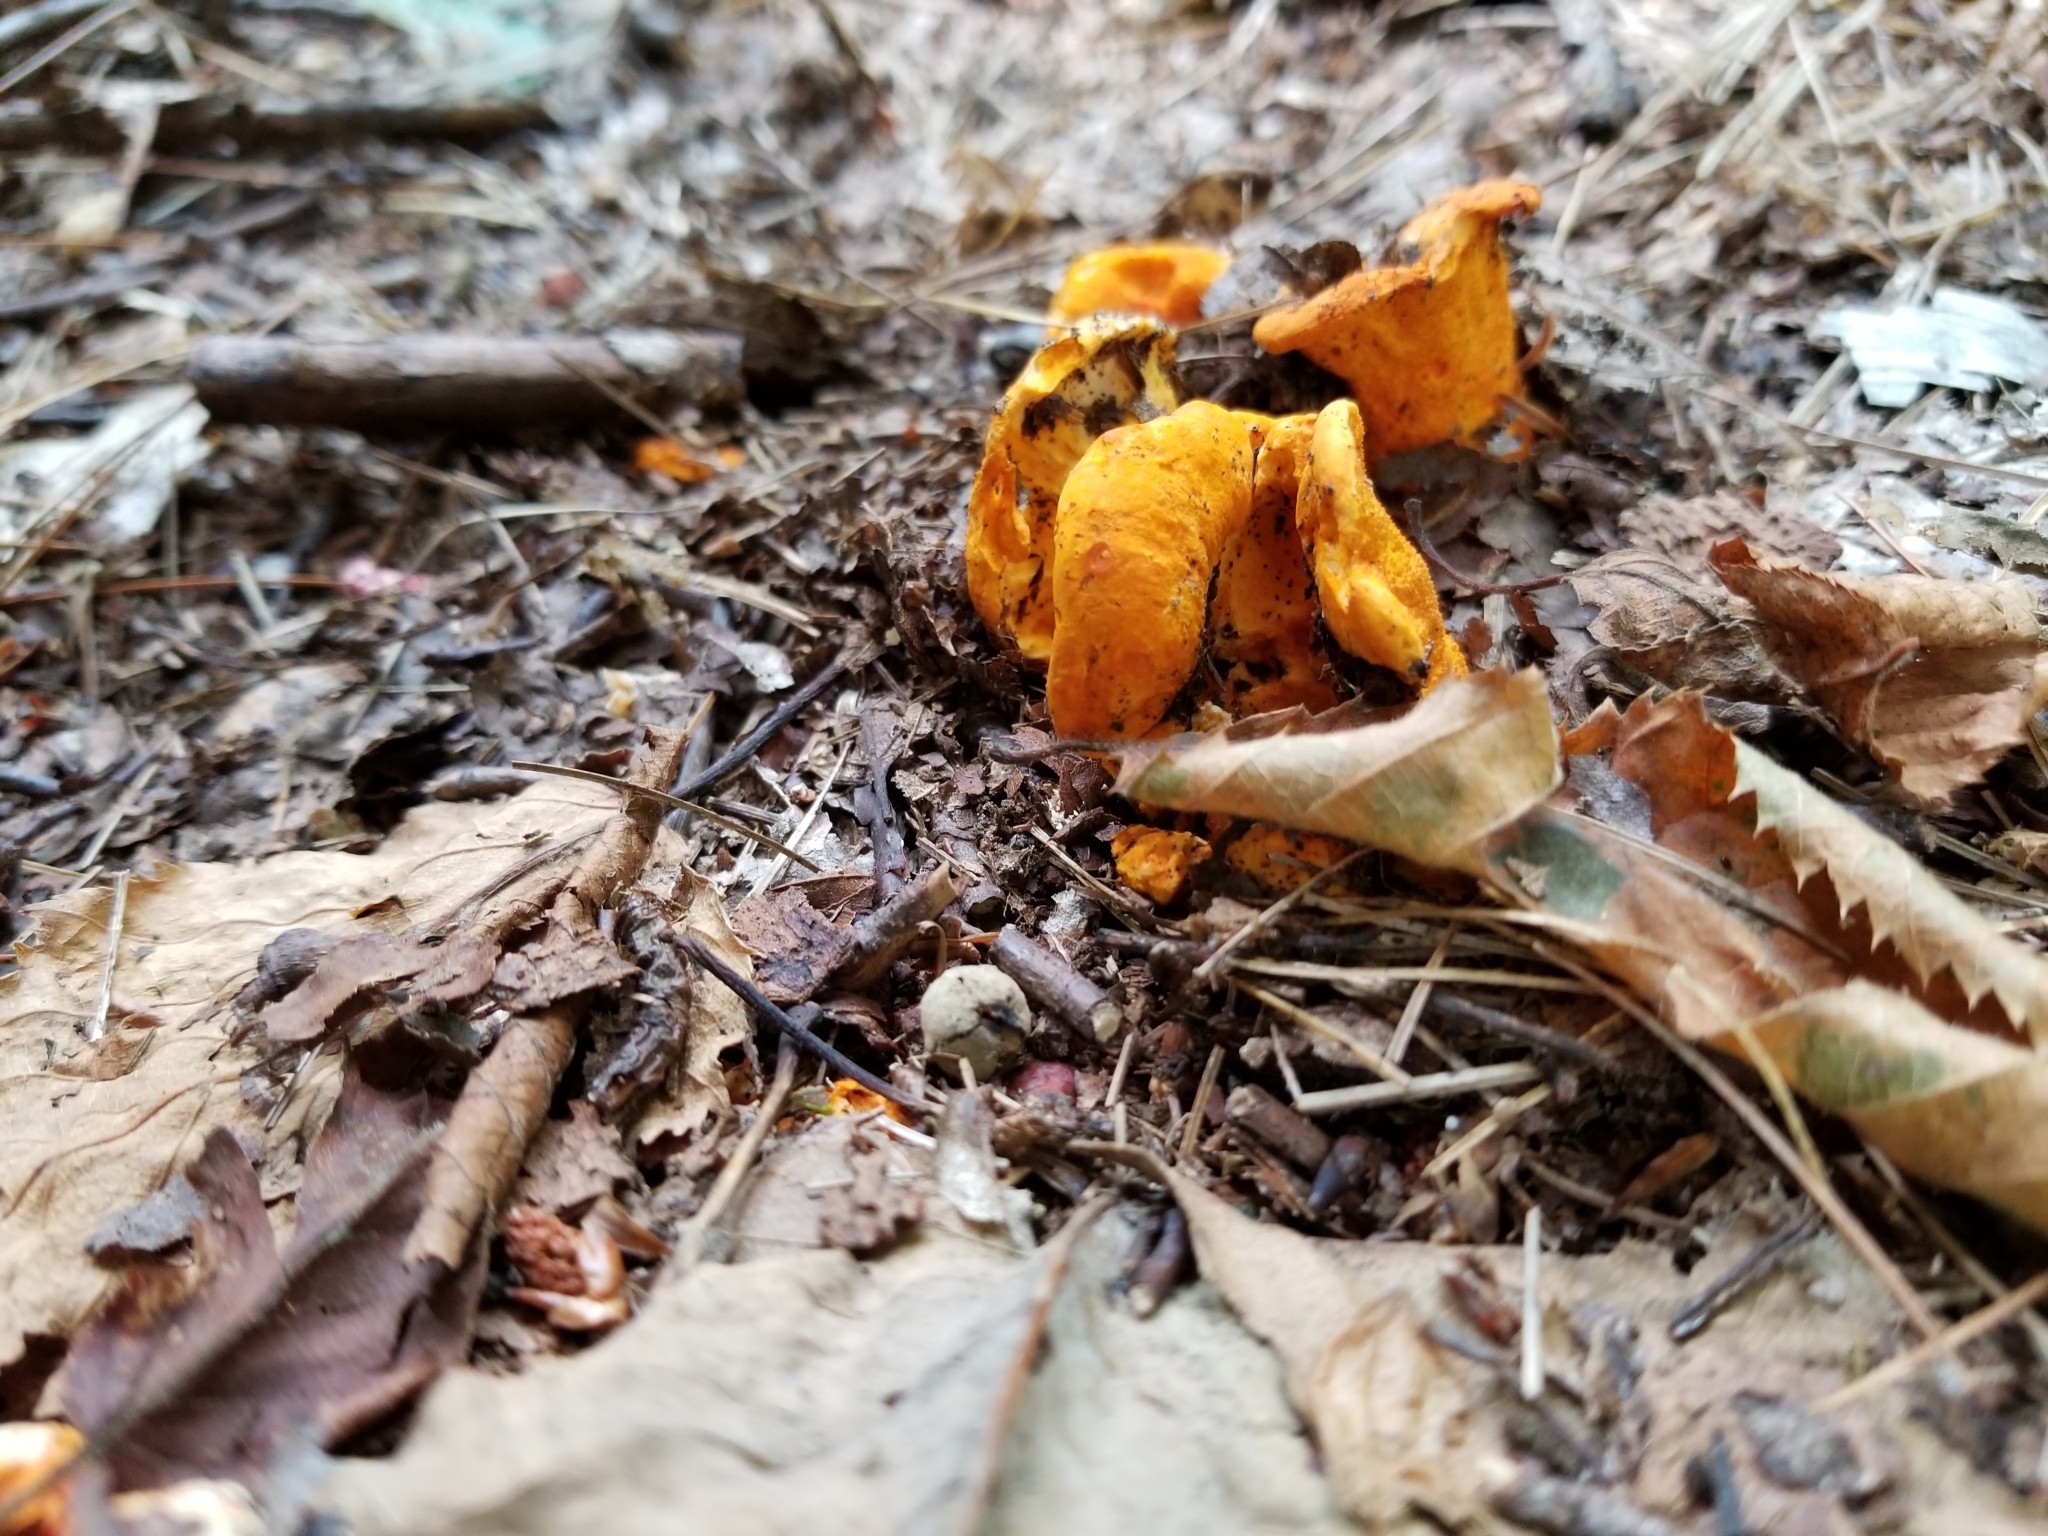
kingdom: Fungi
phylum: Ascomycota
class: Sordariomycetes
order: Hypocreales
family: Hypocreaceae
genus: Hypomyces
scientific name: Hypomyces lactifluorum
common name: Lobster mushroom
